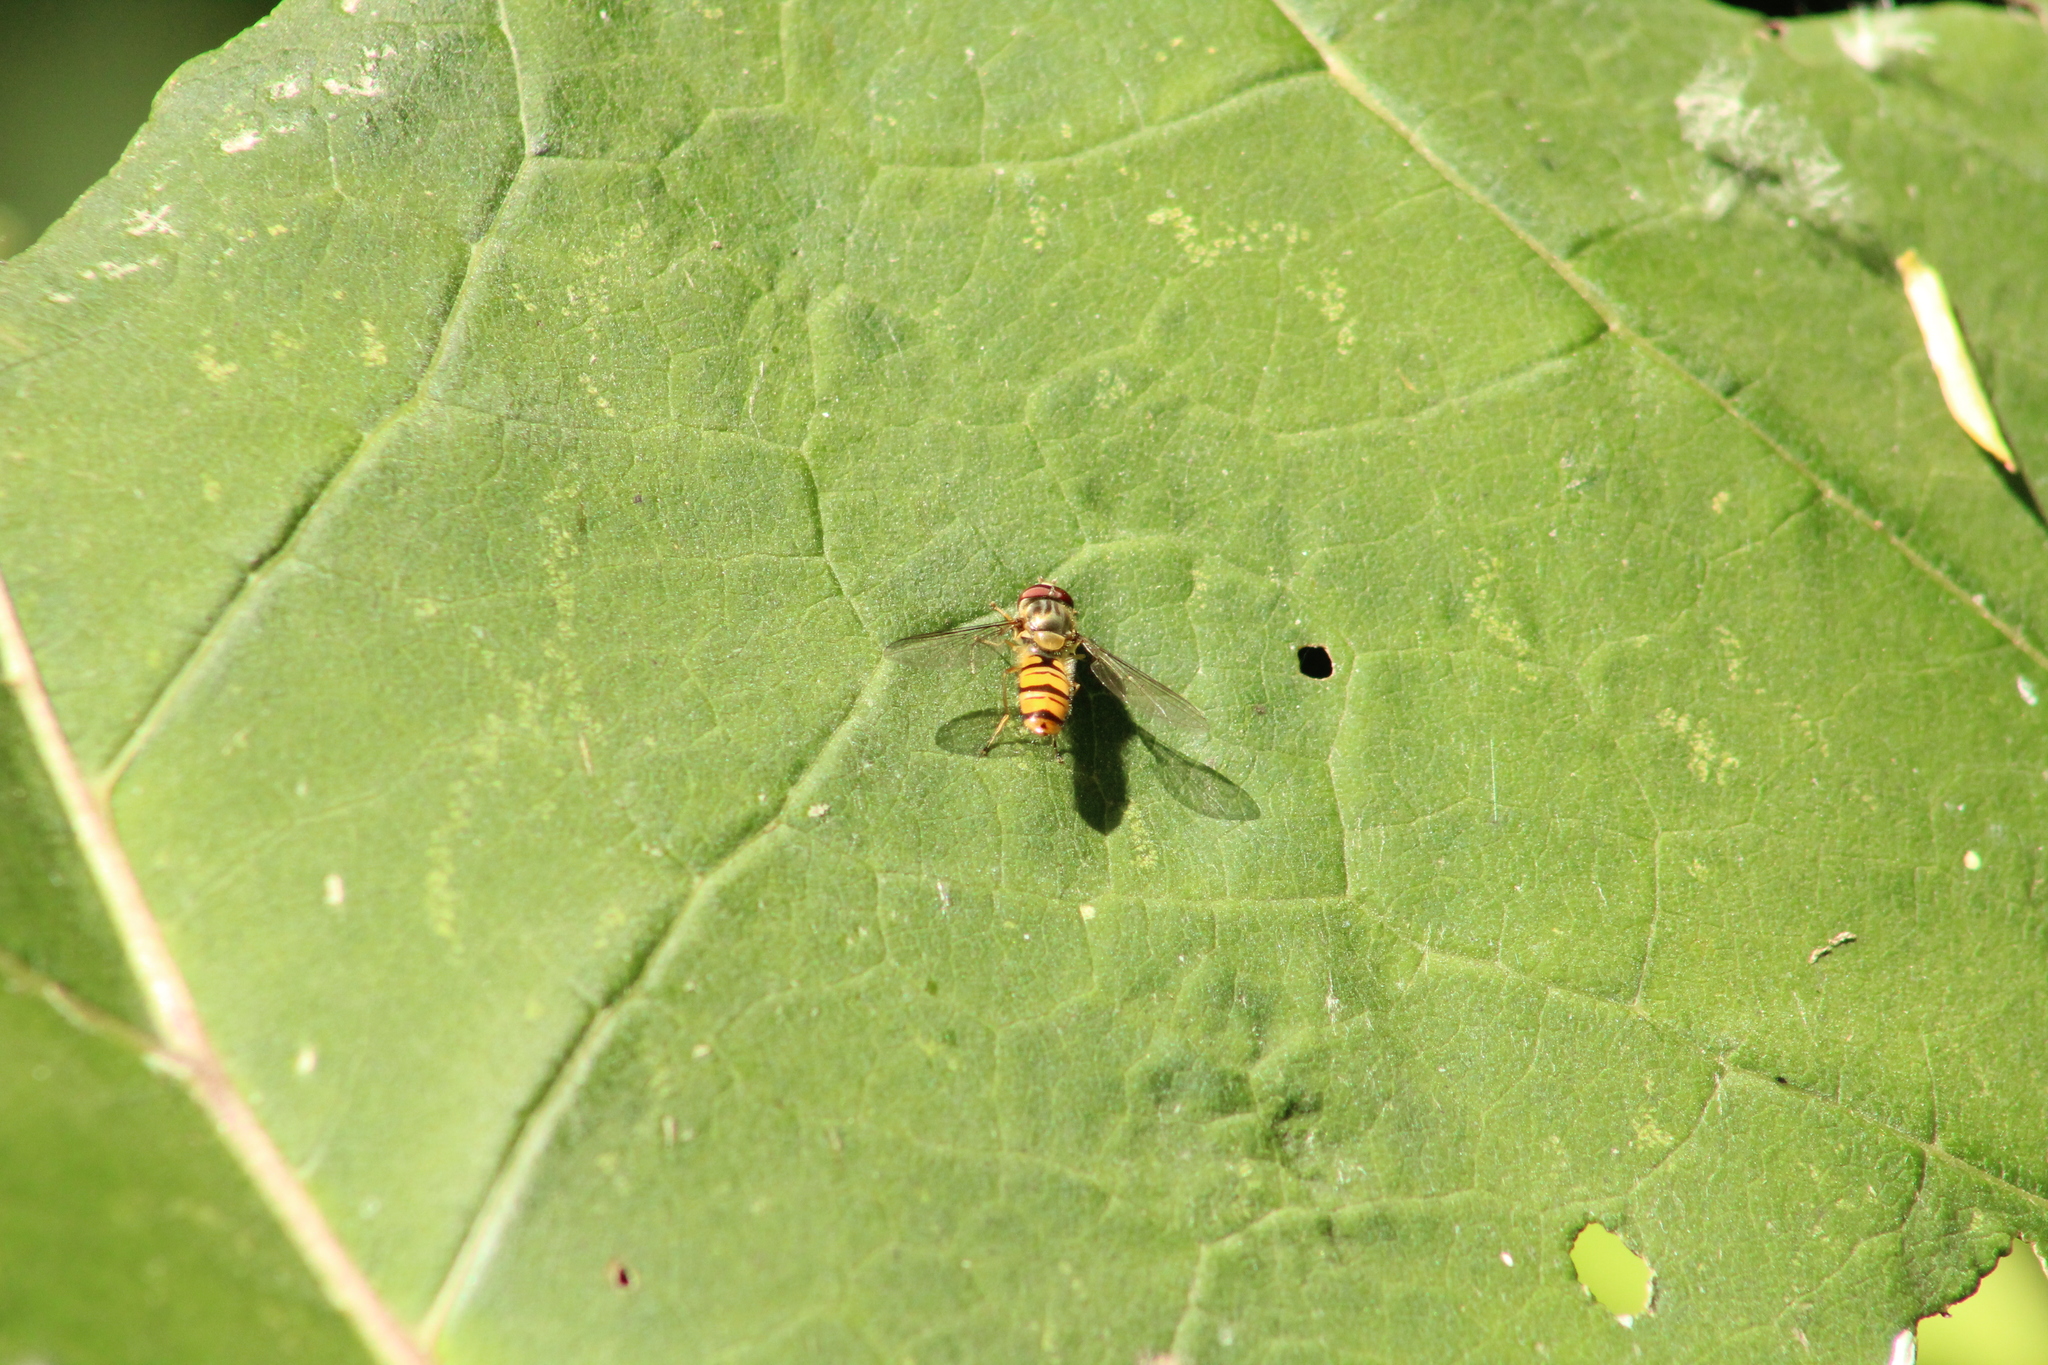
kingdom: Animalia
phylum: Arthropoda
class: Insecta
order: Diptera
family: Syrphidae
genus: Episyrphus
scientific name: Episyrphus balteatus
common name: Marmalade hoverfly
